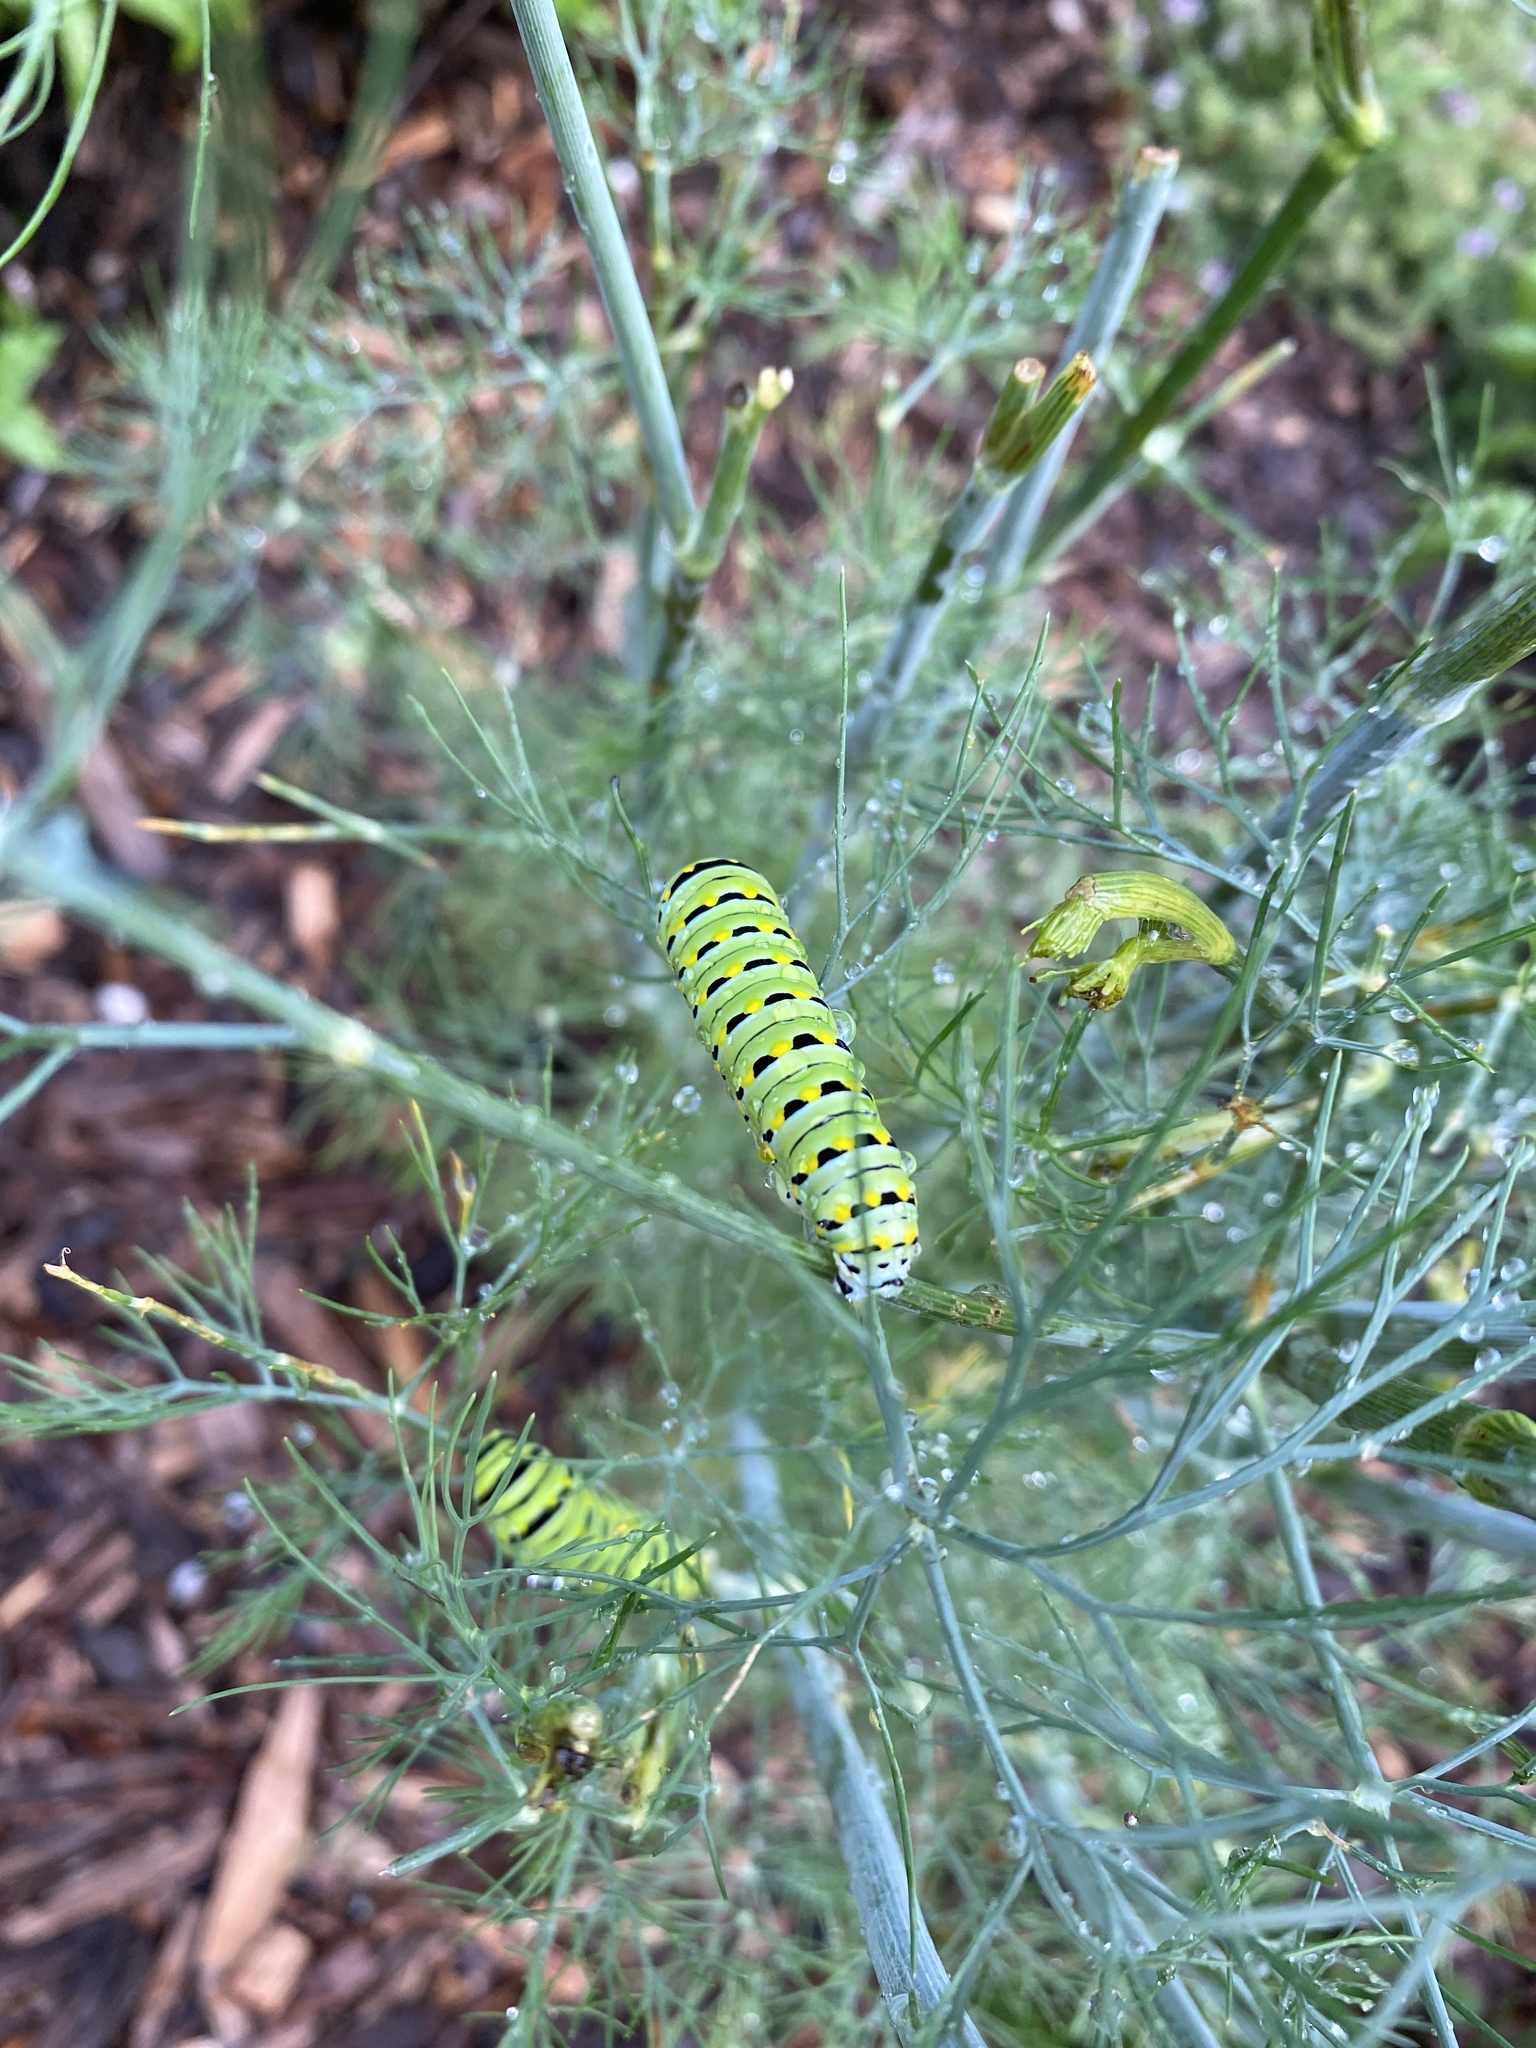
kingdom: Animalia
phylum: Arthropoda
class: Insecta
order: Lepidoptera
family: Papilionidae
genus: Papilio
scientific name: Papilio polyxenes
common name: Black swallowtail
